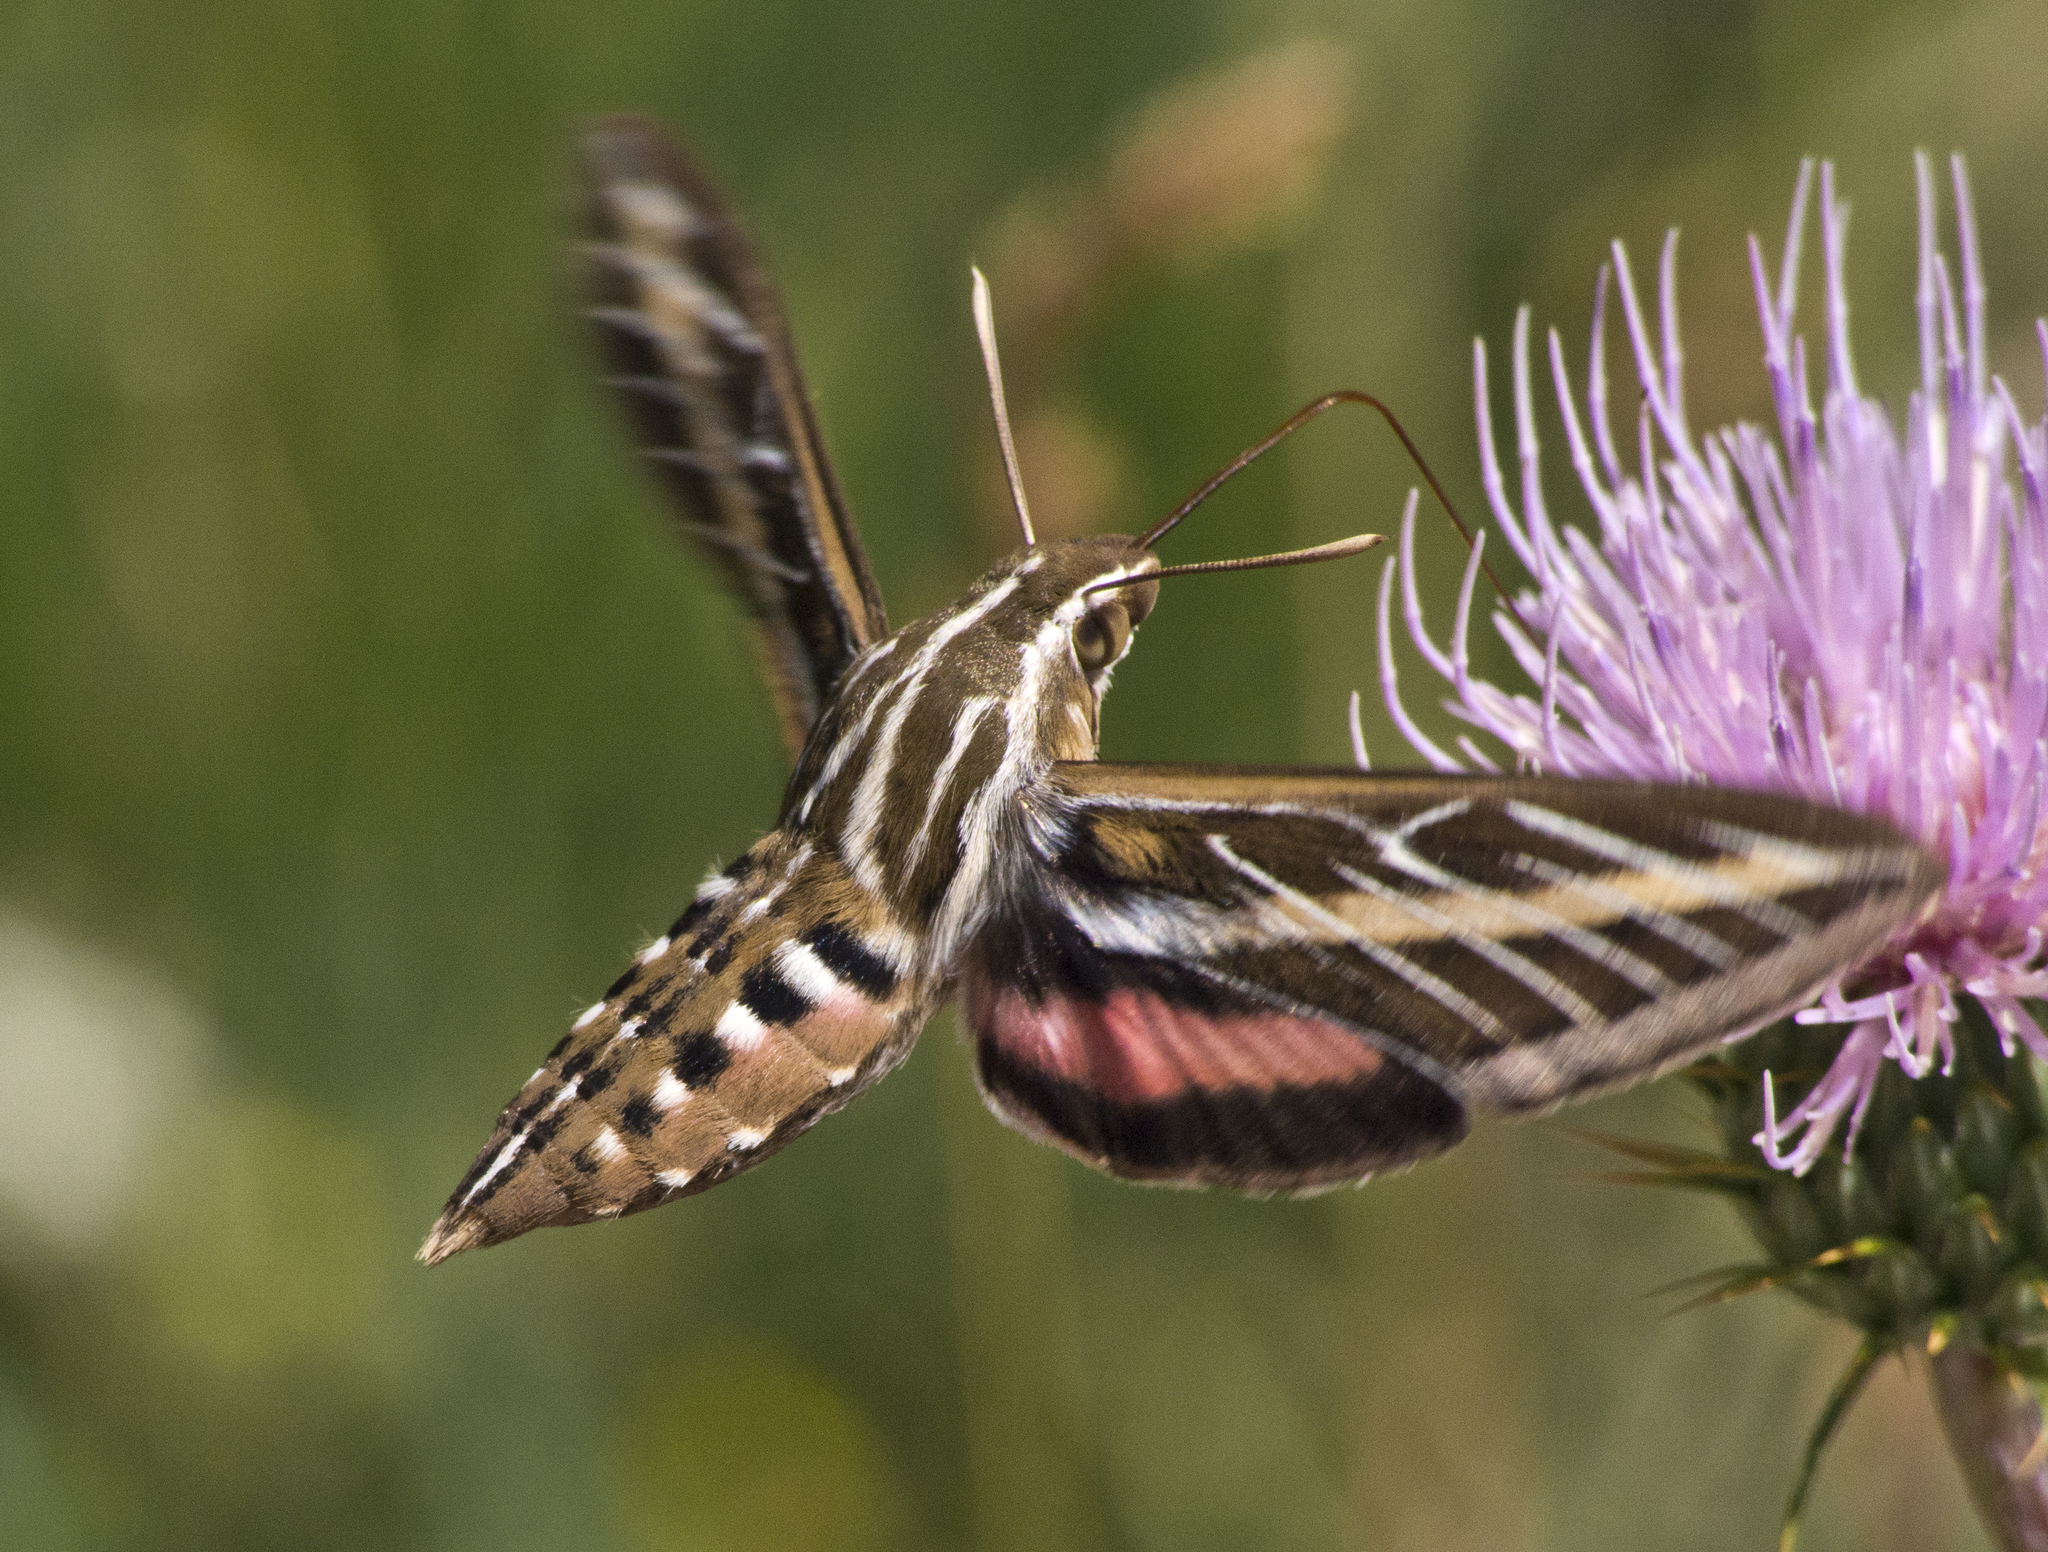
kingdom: Animalia
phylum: Arthropoda
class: Insecta
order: Lepidoptera
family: Sphingidae
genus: Hyles
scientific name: Hyles lineata
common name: White-lined sphinx
